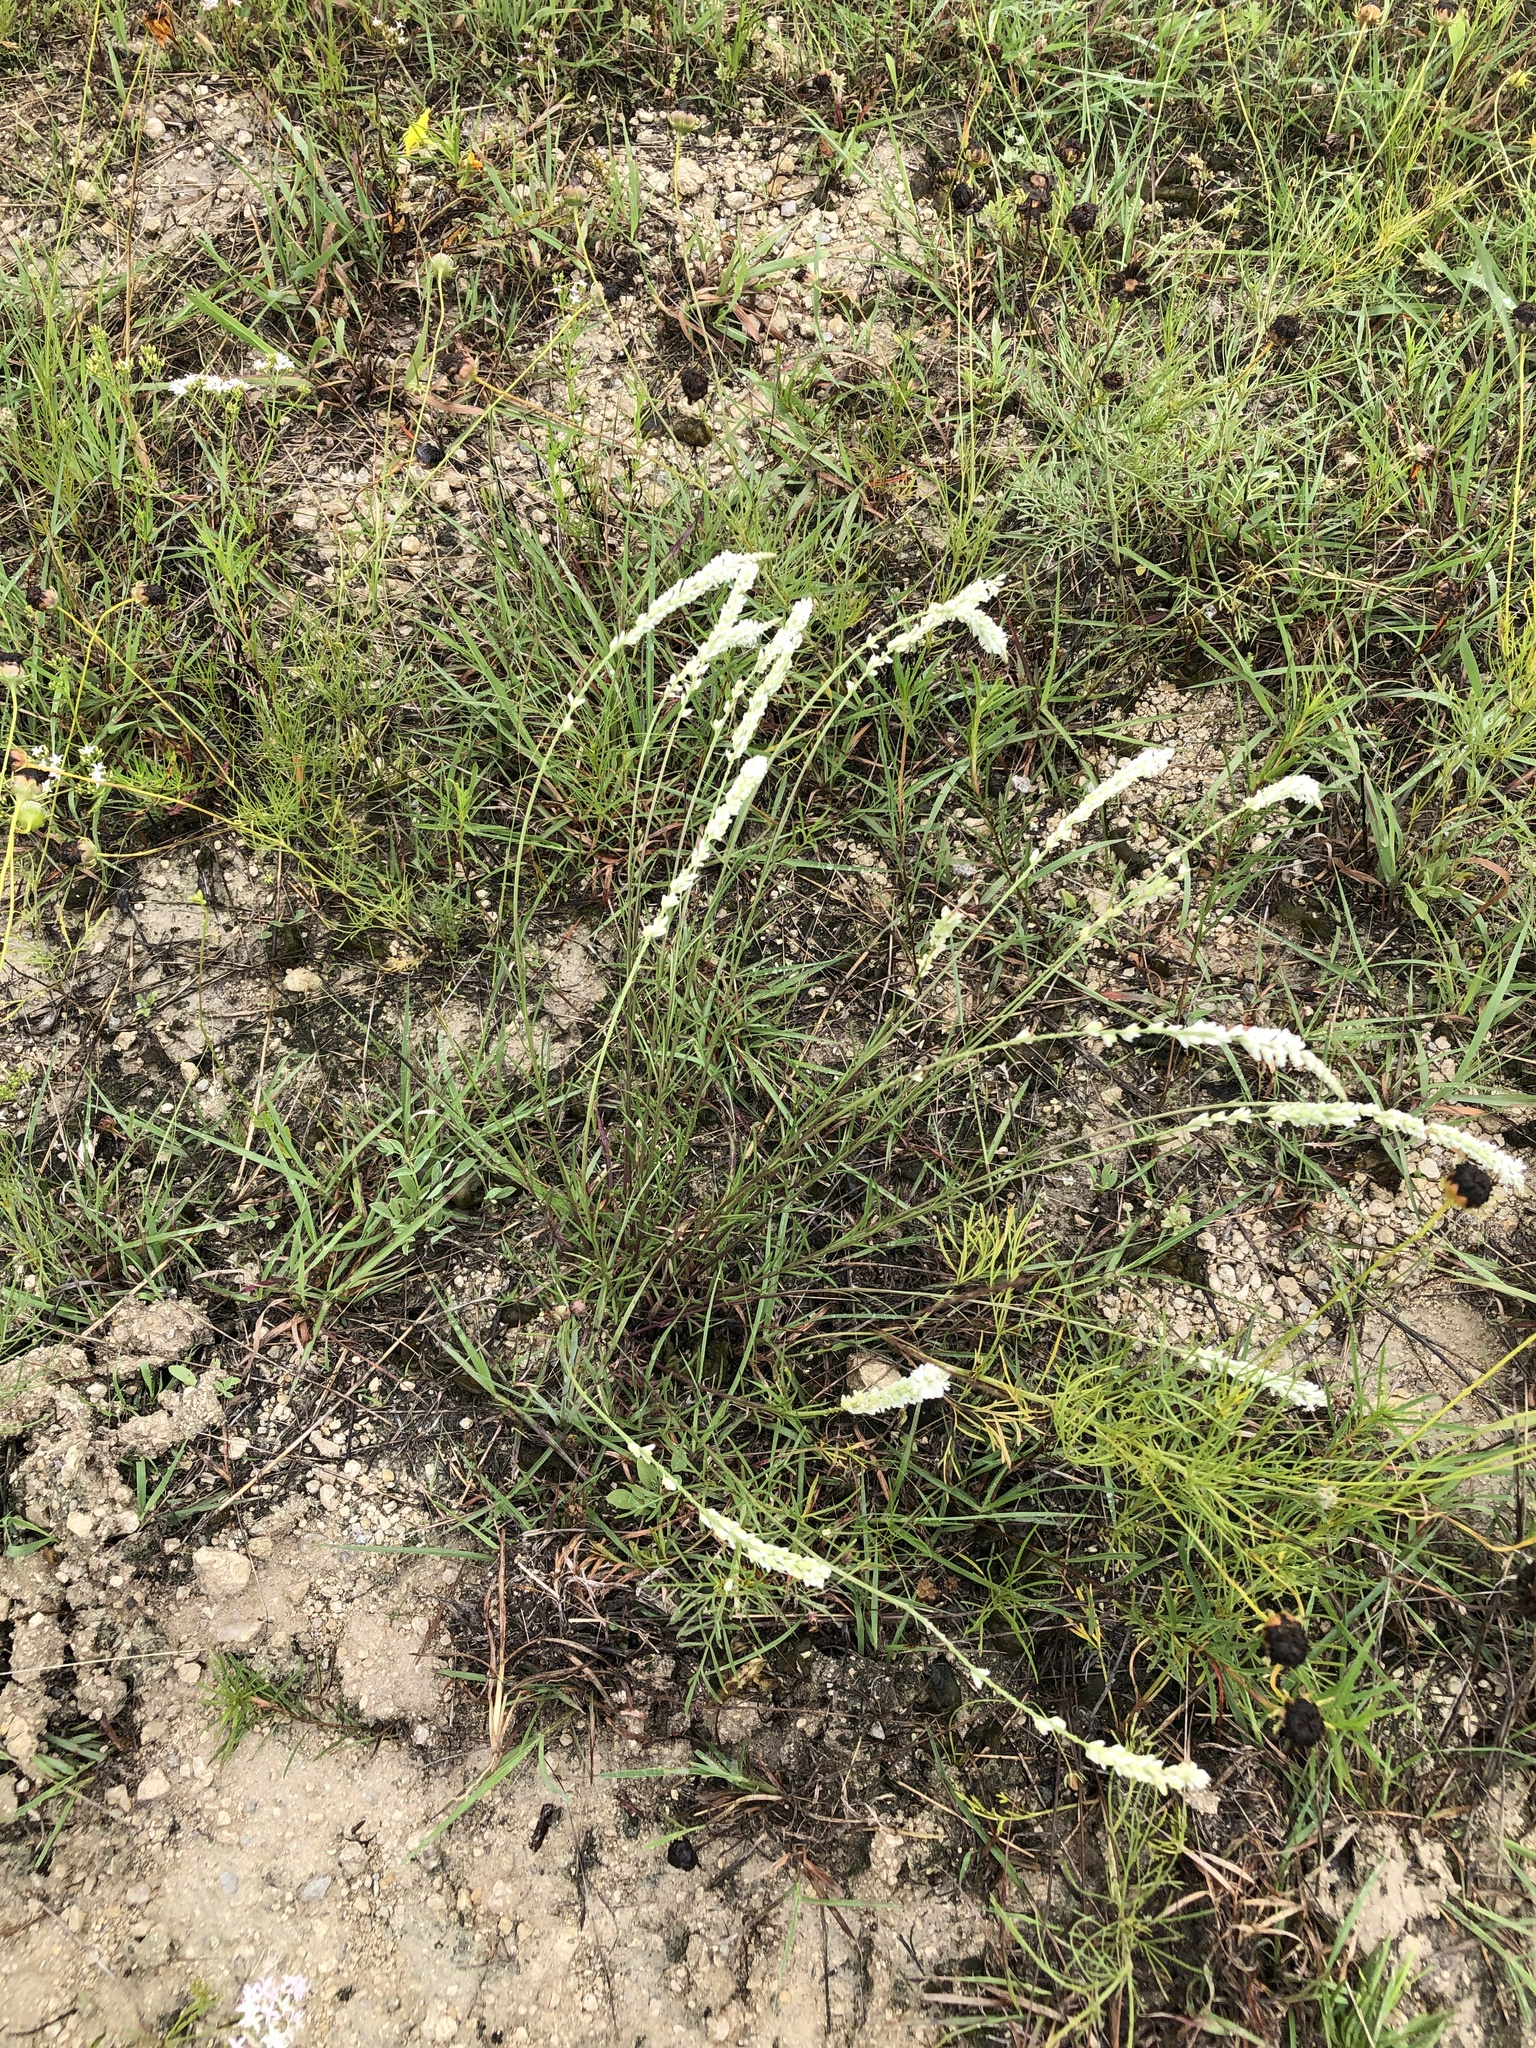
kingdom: Plantae
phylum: Tracheophyta
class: Magnoliopsida
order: Fabales
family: Polygalaceae
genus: Polygala
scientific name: Polygala alba
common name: White milkwort
